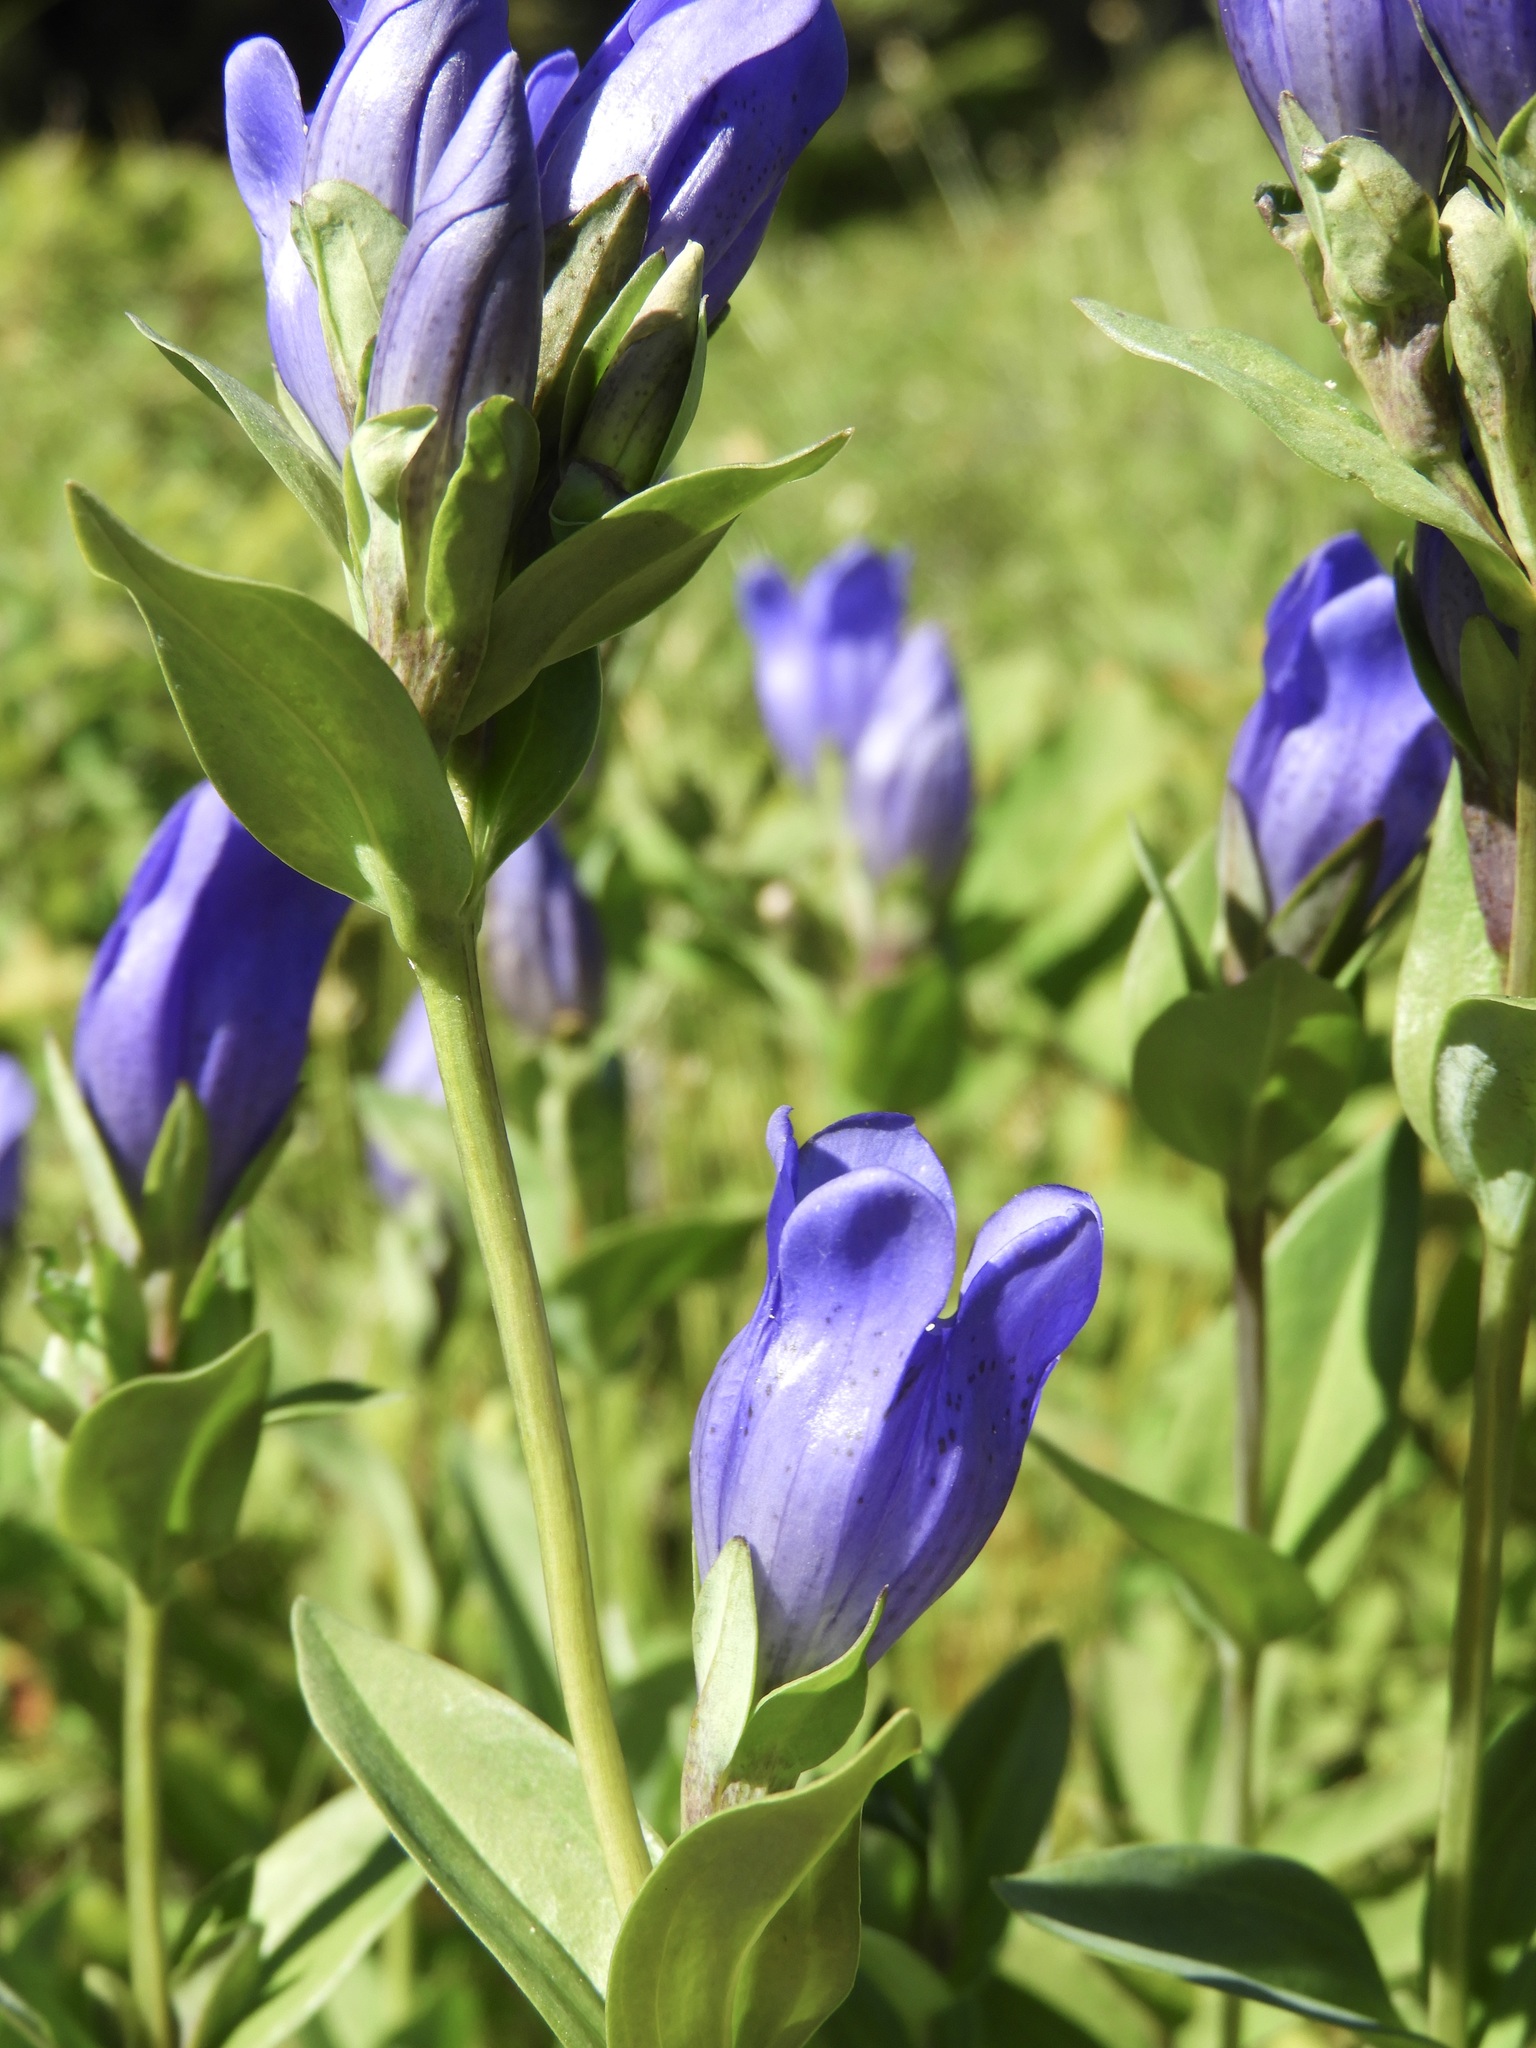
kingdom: Plantae
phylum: Tracheophyta
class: Magnoliopsida
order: Gentianales
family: Gentianaceae
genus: Gentiana
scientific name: Gentiana sceptrum
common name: Pacific gentian
